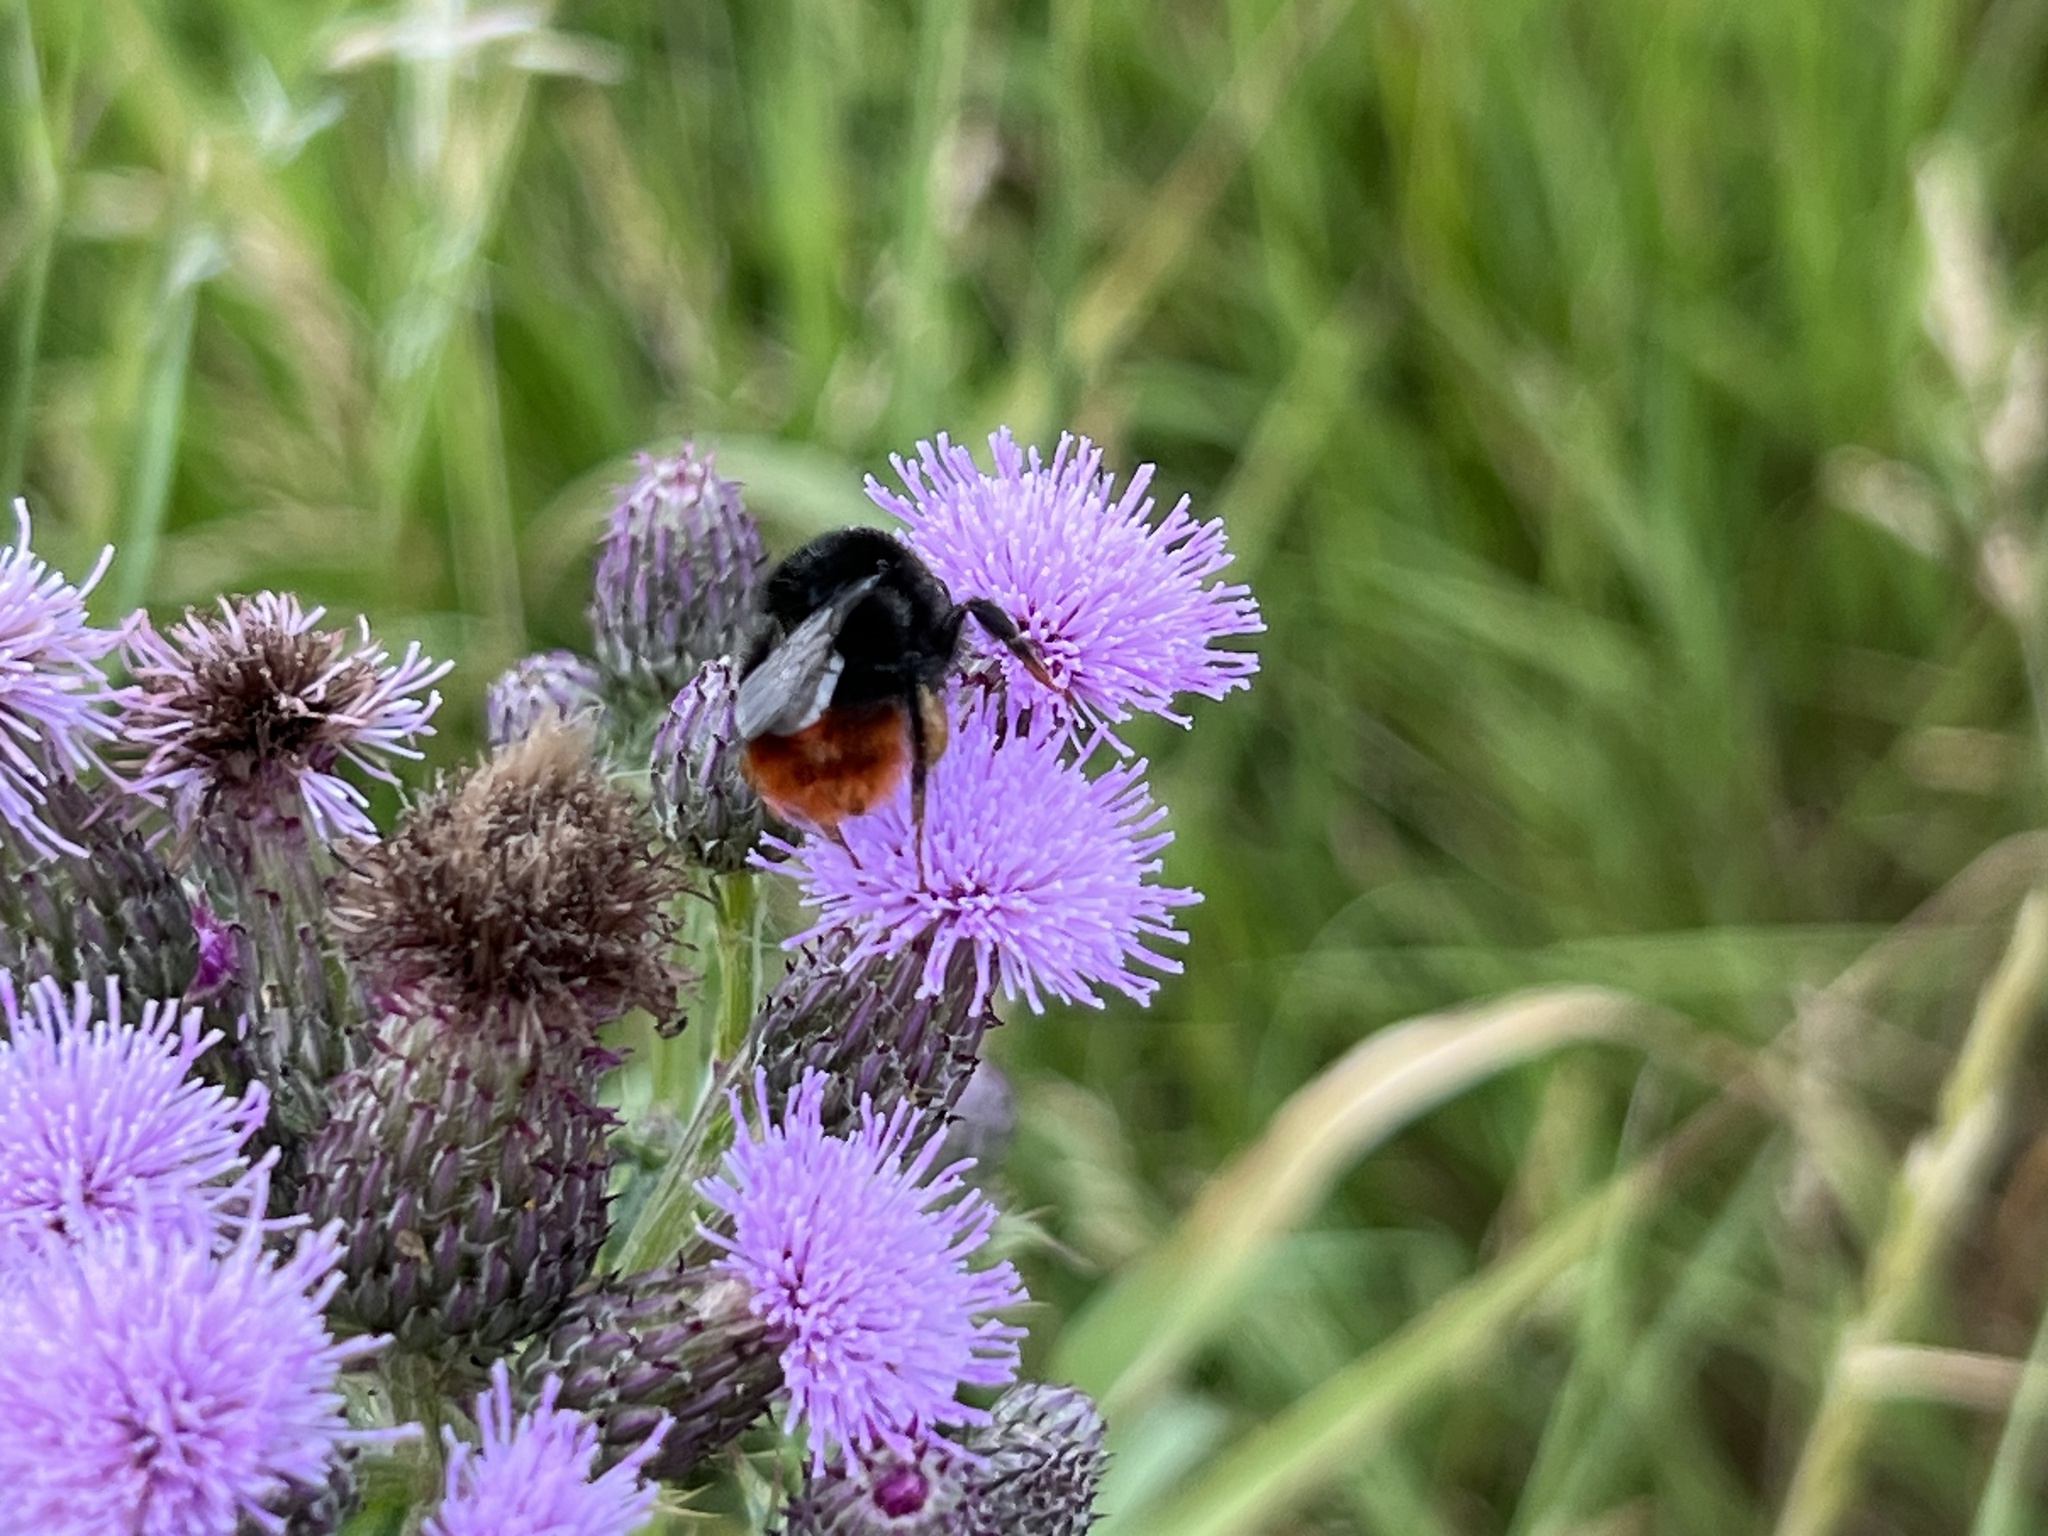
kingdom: Animalia
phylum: Arthropoda
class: Insecta
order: Hymenoptera
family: Apidae
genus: Bombus
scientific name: Bombus lapidarius
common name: Large red-tailed humble-bee
